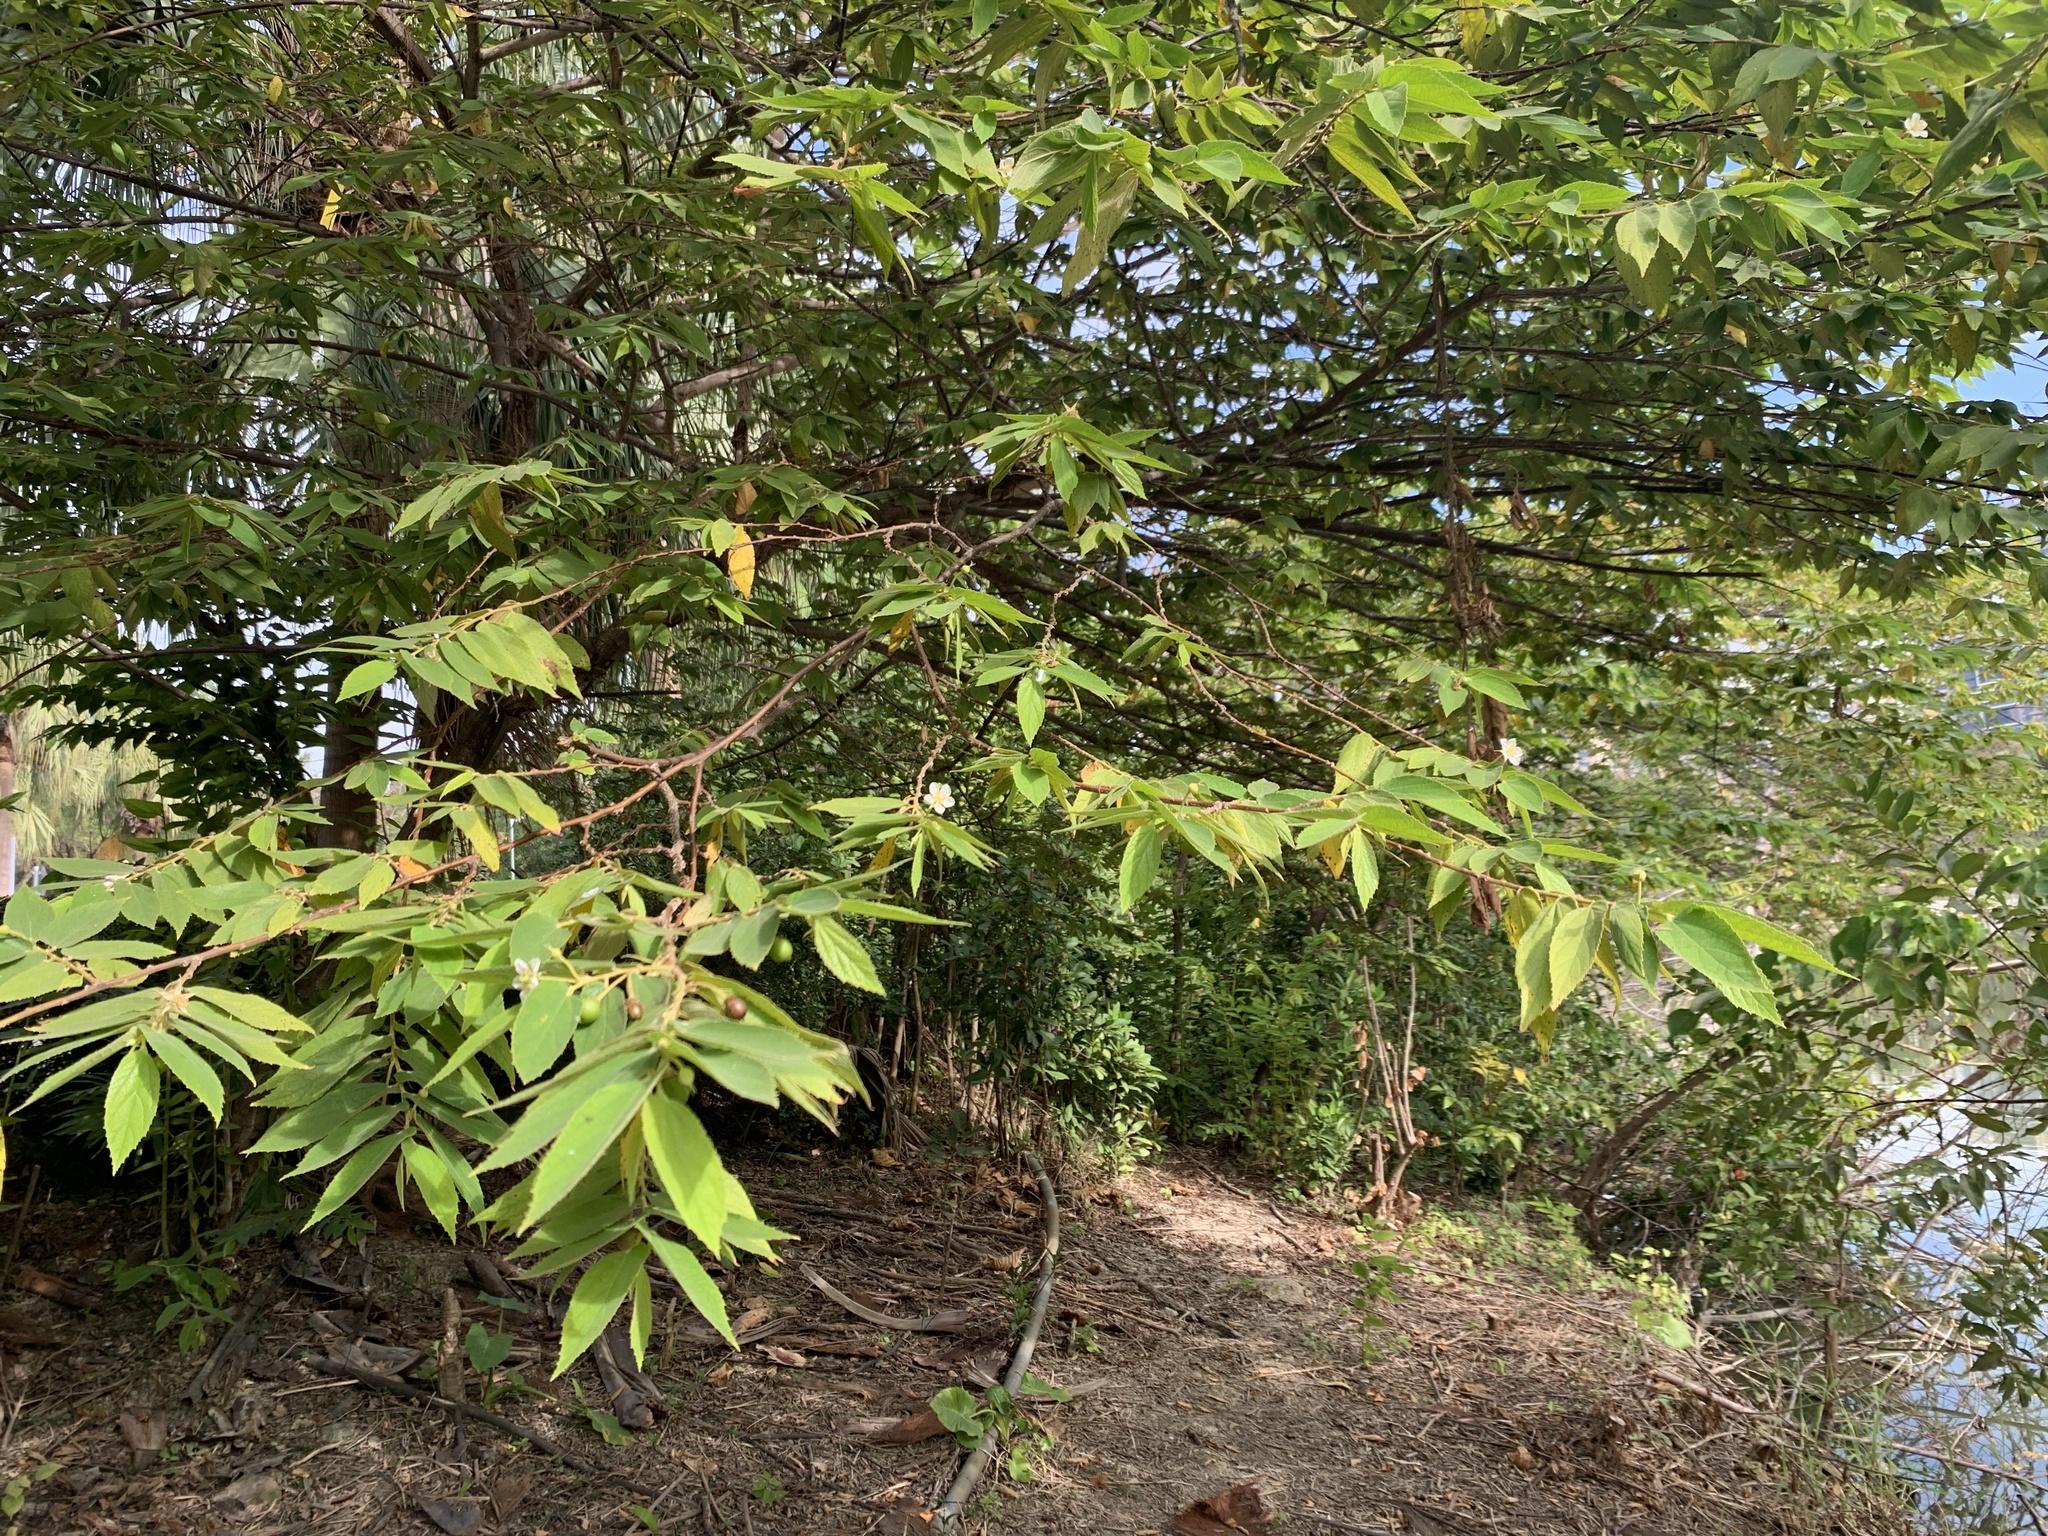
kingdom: Plantae
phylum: Tracheophyta
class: Magnoliopsida
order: Malvales
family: Muntingiaceae
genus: Muntingia
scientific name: Muntingia calabura
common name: Strawberrytree
